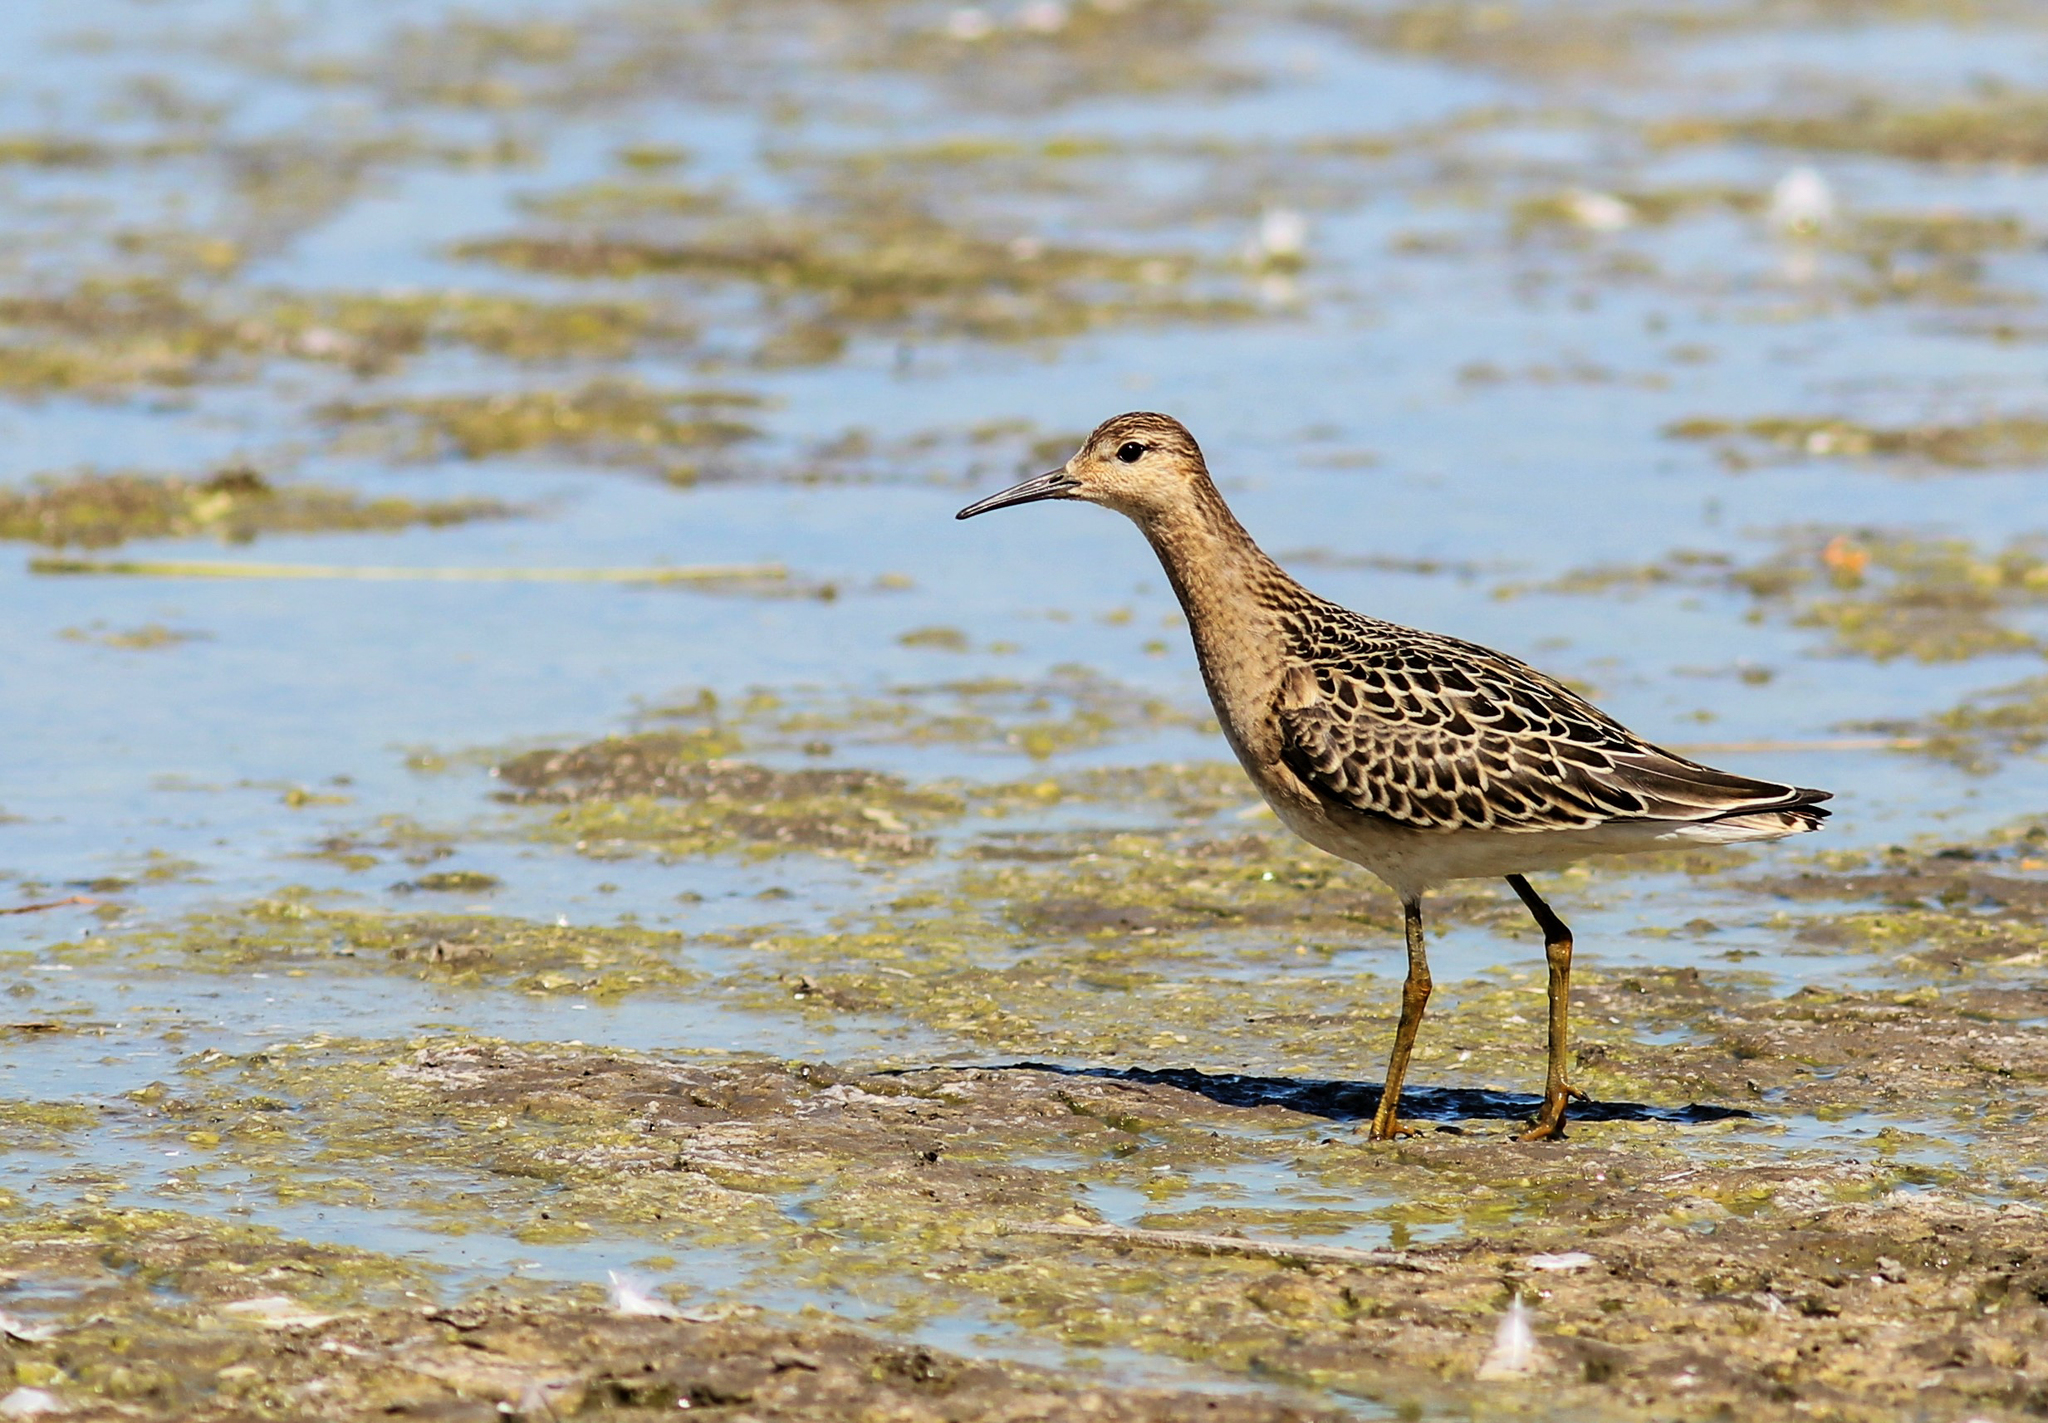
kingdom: Animalia
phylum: Chordata
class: Aves
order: Charadriiformes
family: Scolopacidae
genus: Calidris
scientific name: Calidris pugnax
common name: Ruff
